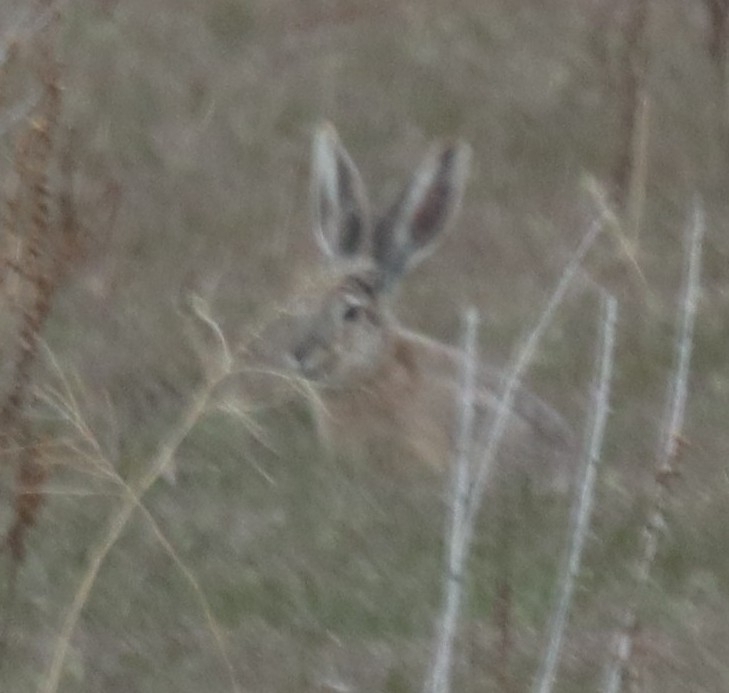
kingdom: Animalia
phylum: Chordata
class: Mammalia
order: Lagomorpha
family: Leporidae
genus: Lepus
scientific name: Lepus californicus
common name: Black-tailed jackrabbit
